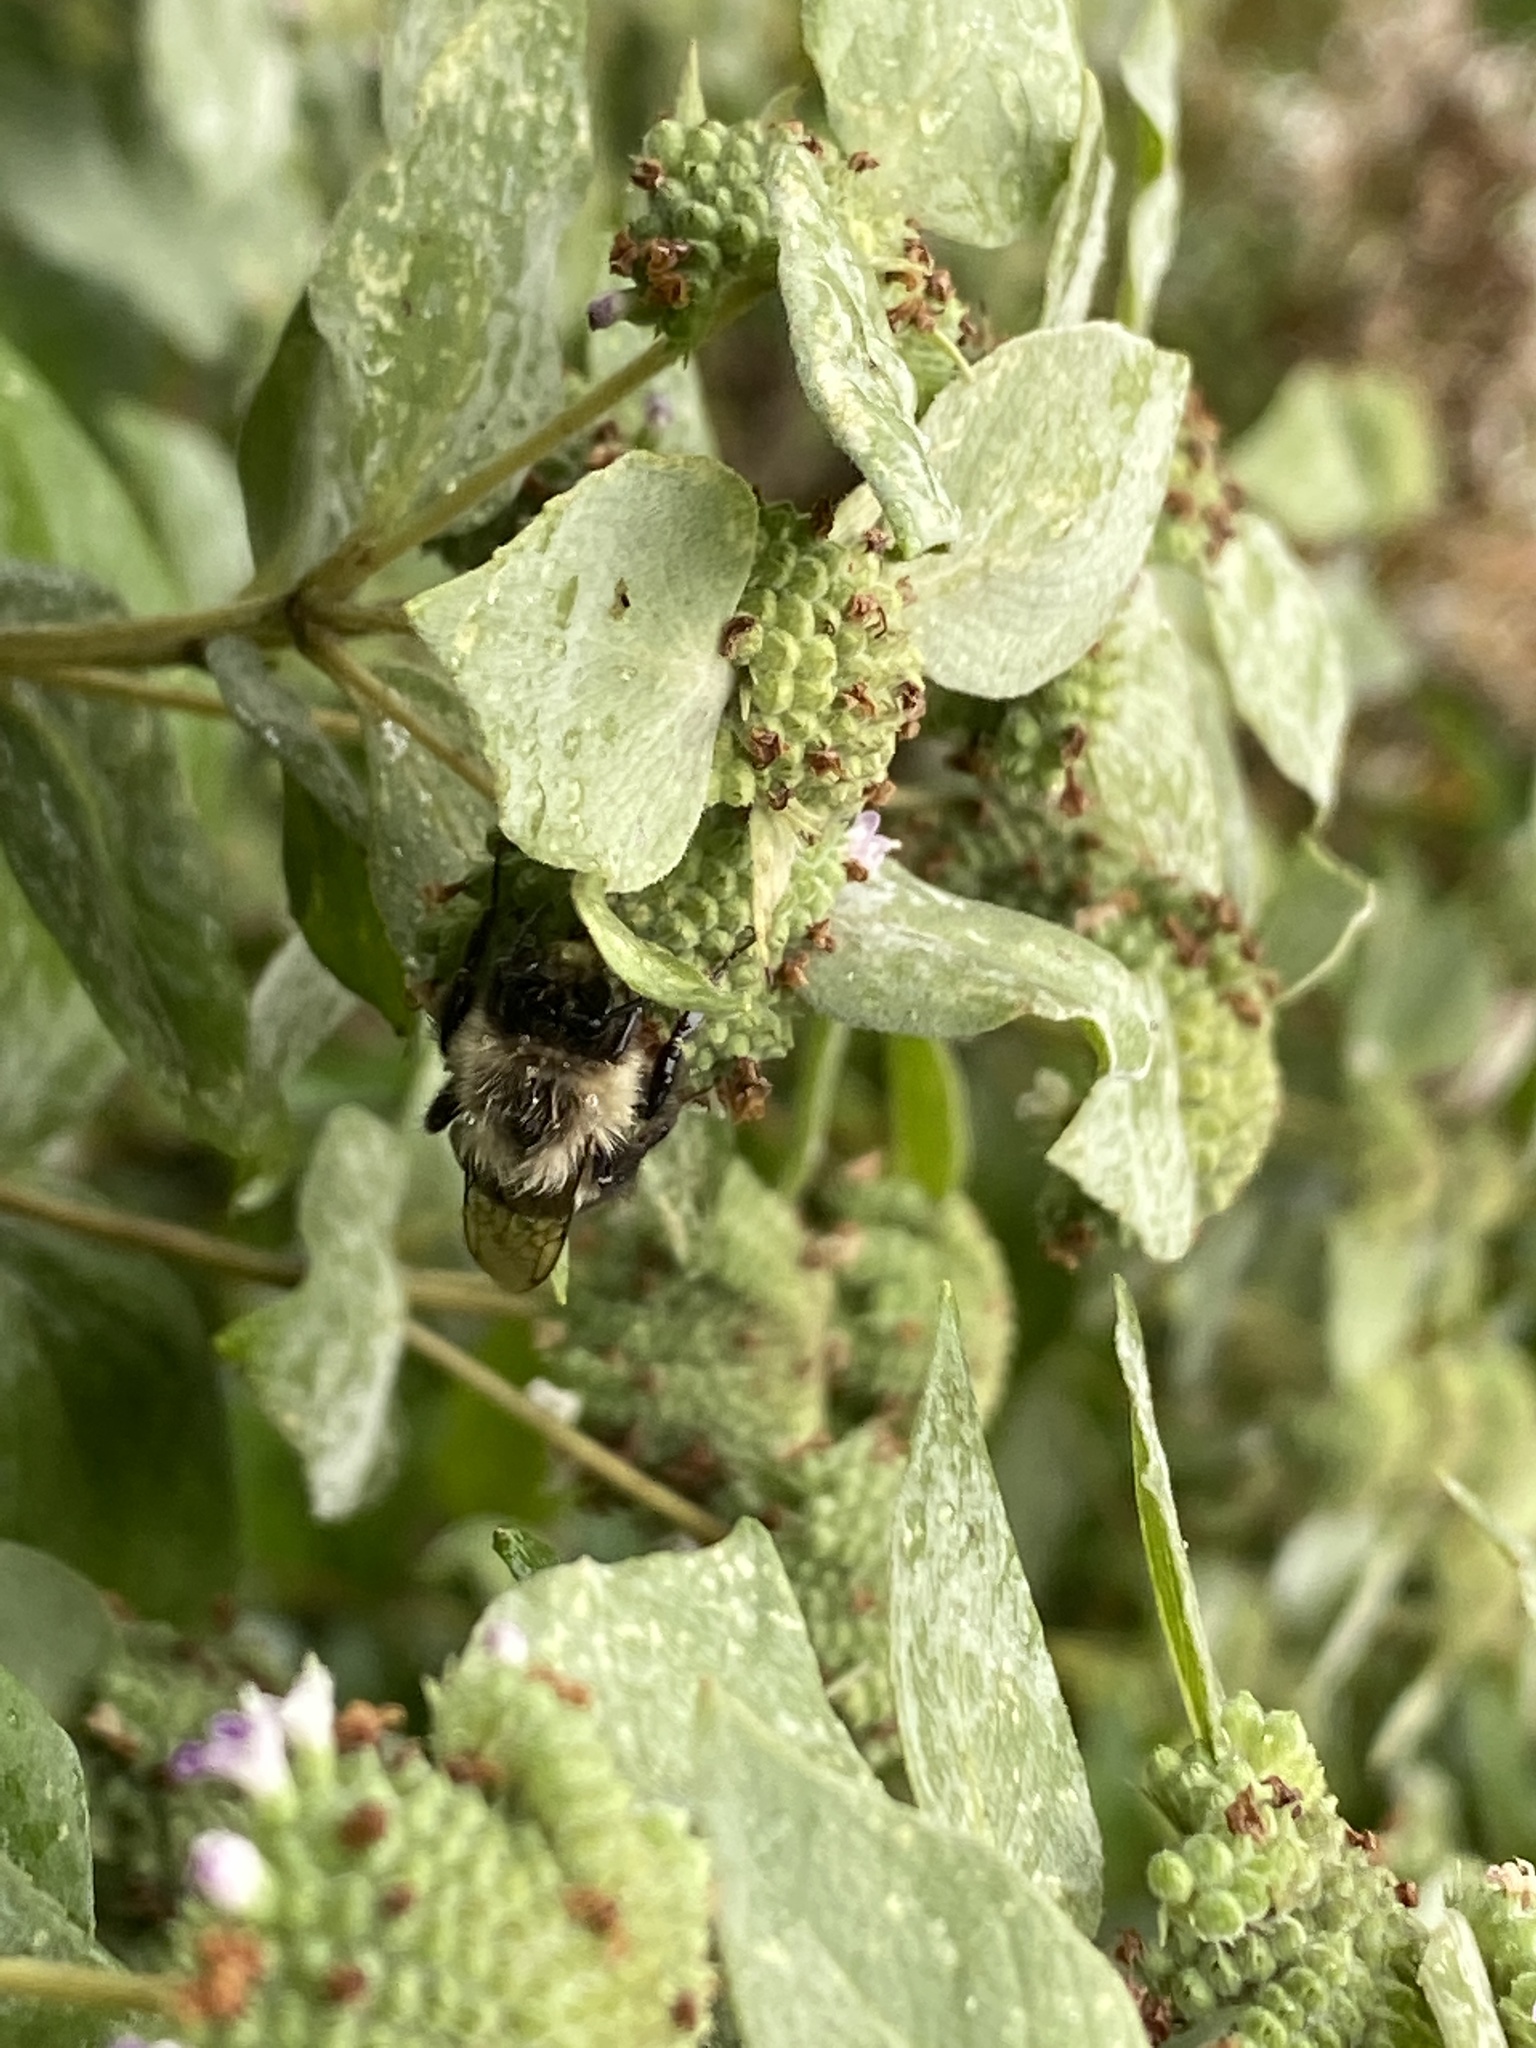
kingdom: Animalia
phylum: Arthropoda
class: Insecta
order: Hymenoptera
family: Apidae
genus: Bombus
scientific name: Bombus impatiens
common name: Common eastern bumble bee
